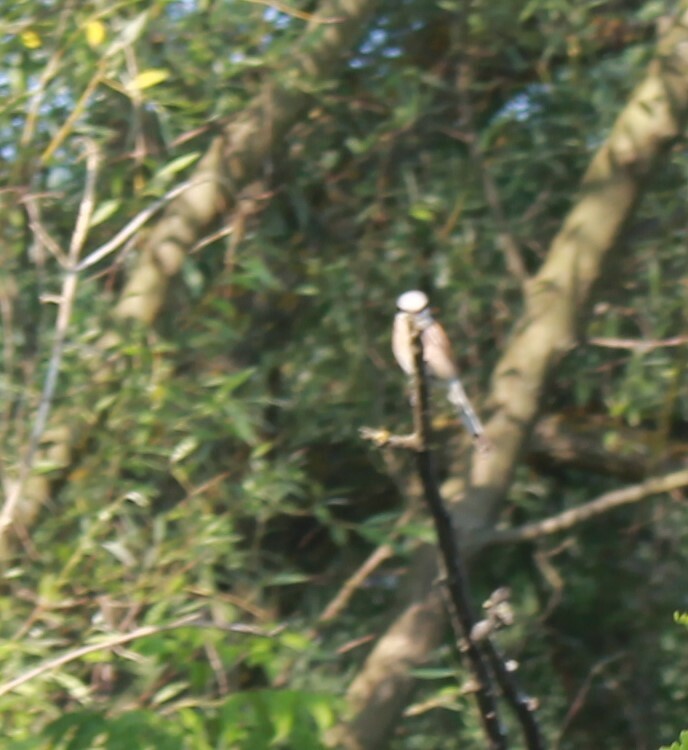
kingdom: Animalia
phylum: Chordata
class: Aves
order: Passeriformes
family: Laniidae
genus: Lanius
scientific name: Lanius collurio
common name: Red-backed shrike
